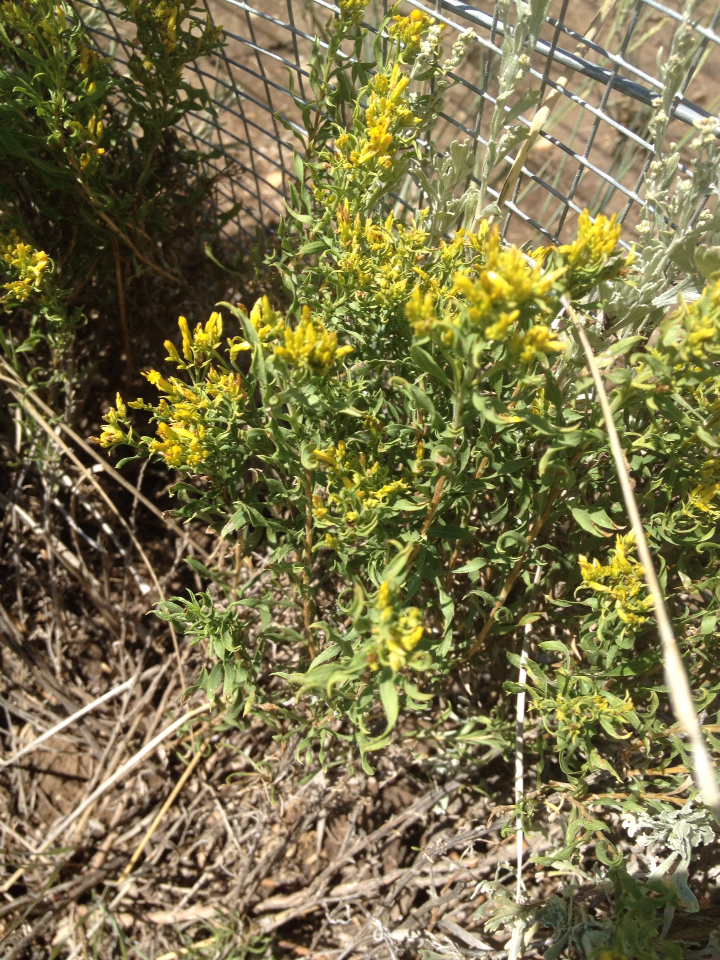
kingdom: Plantae
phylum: Tracheophyta
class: Magnoliopsida
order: Asterales
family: Asteraceae
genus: Chrysothamnus
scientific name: Chrysothamnus viscidiflorus
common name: Yellow rabbitbrush
